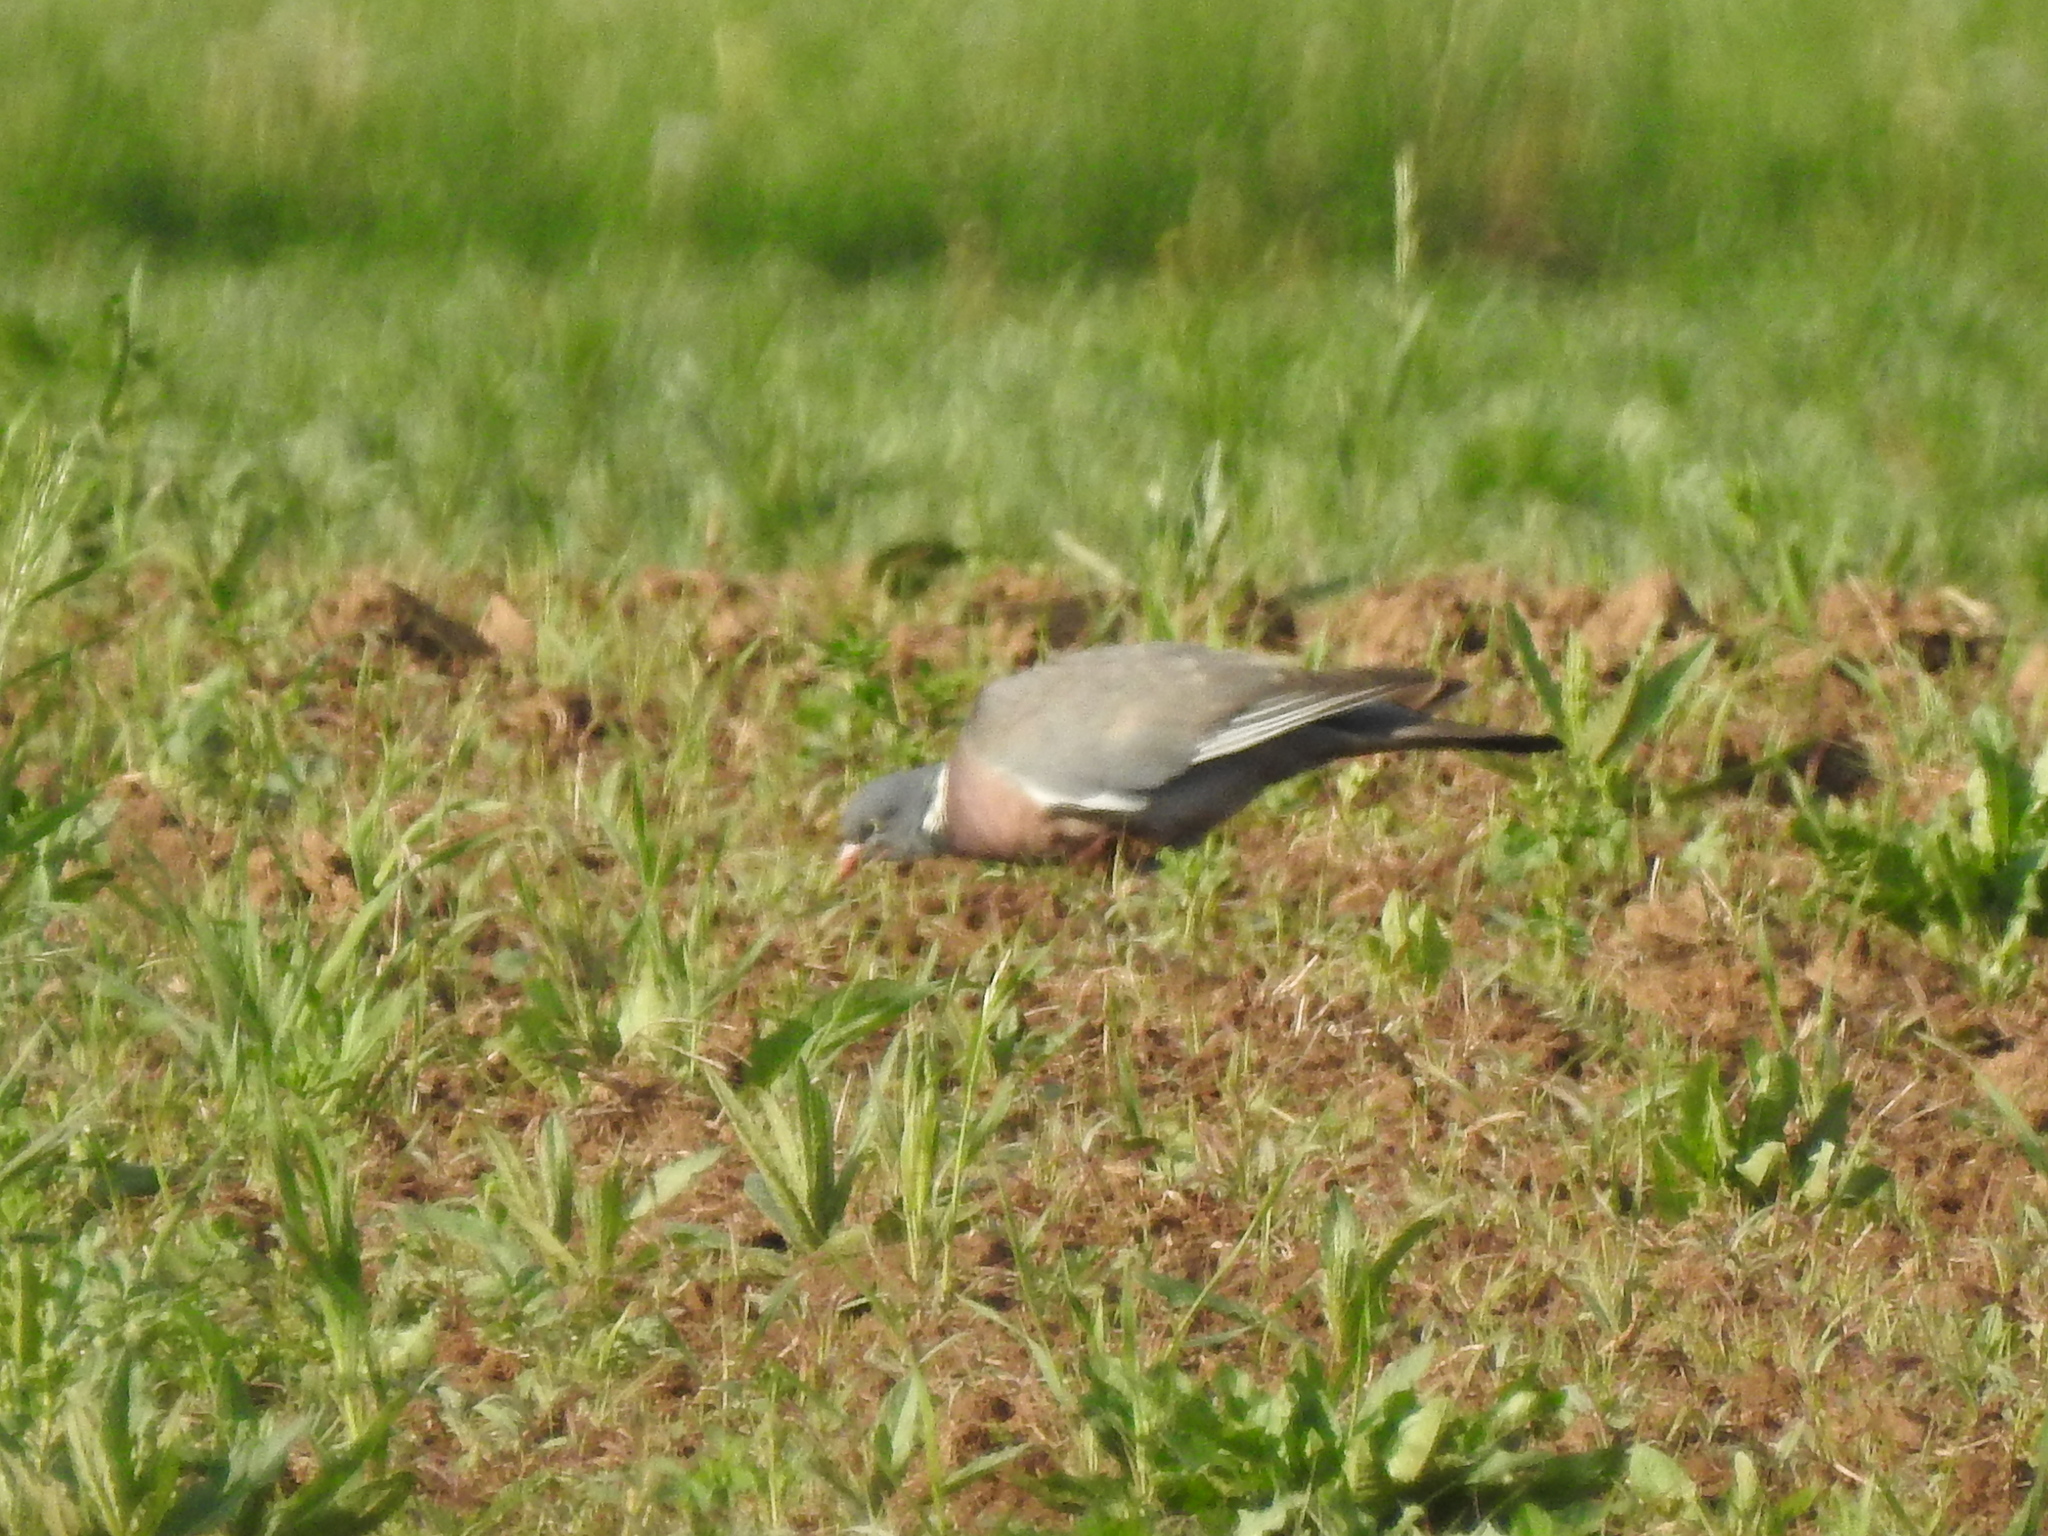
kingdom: Animalia
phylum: Chordata
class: Aves
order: Columbiformes
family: Columbidae
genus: Columba
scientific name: Columba palumbus
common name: Common wood pigeon
